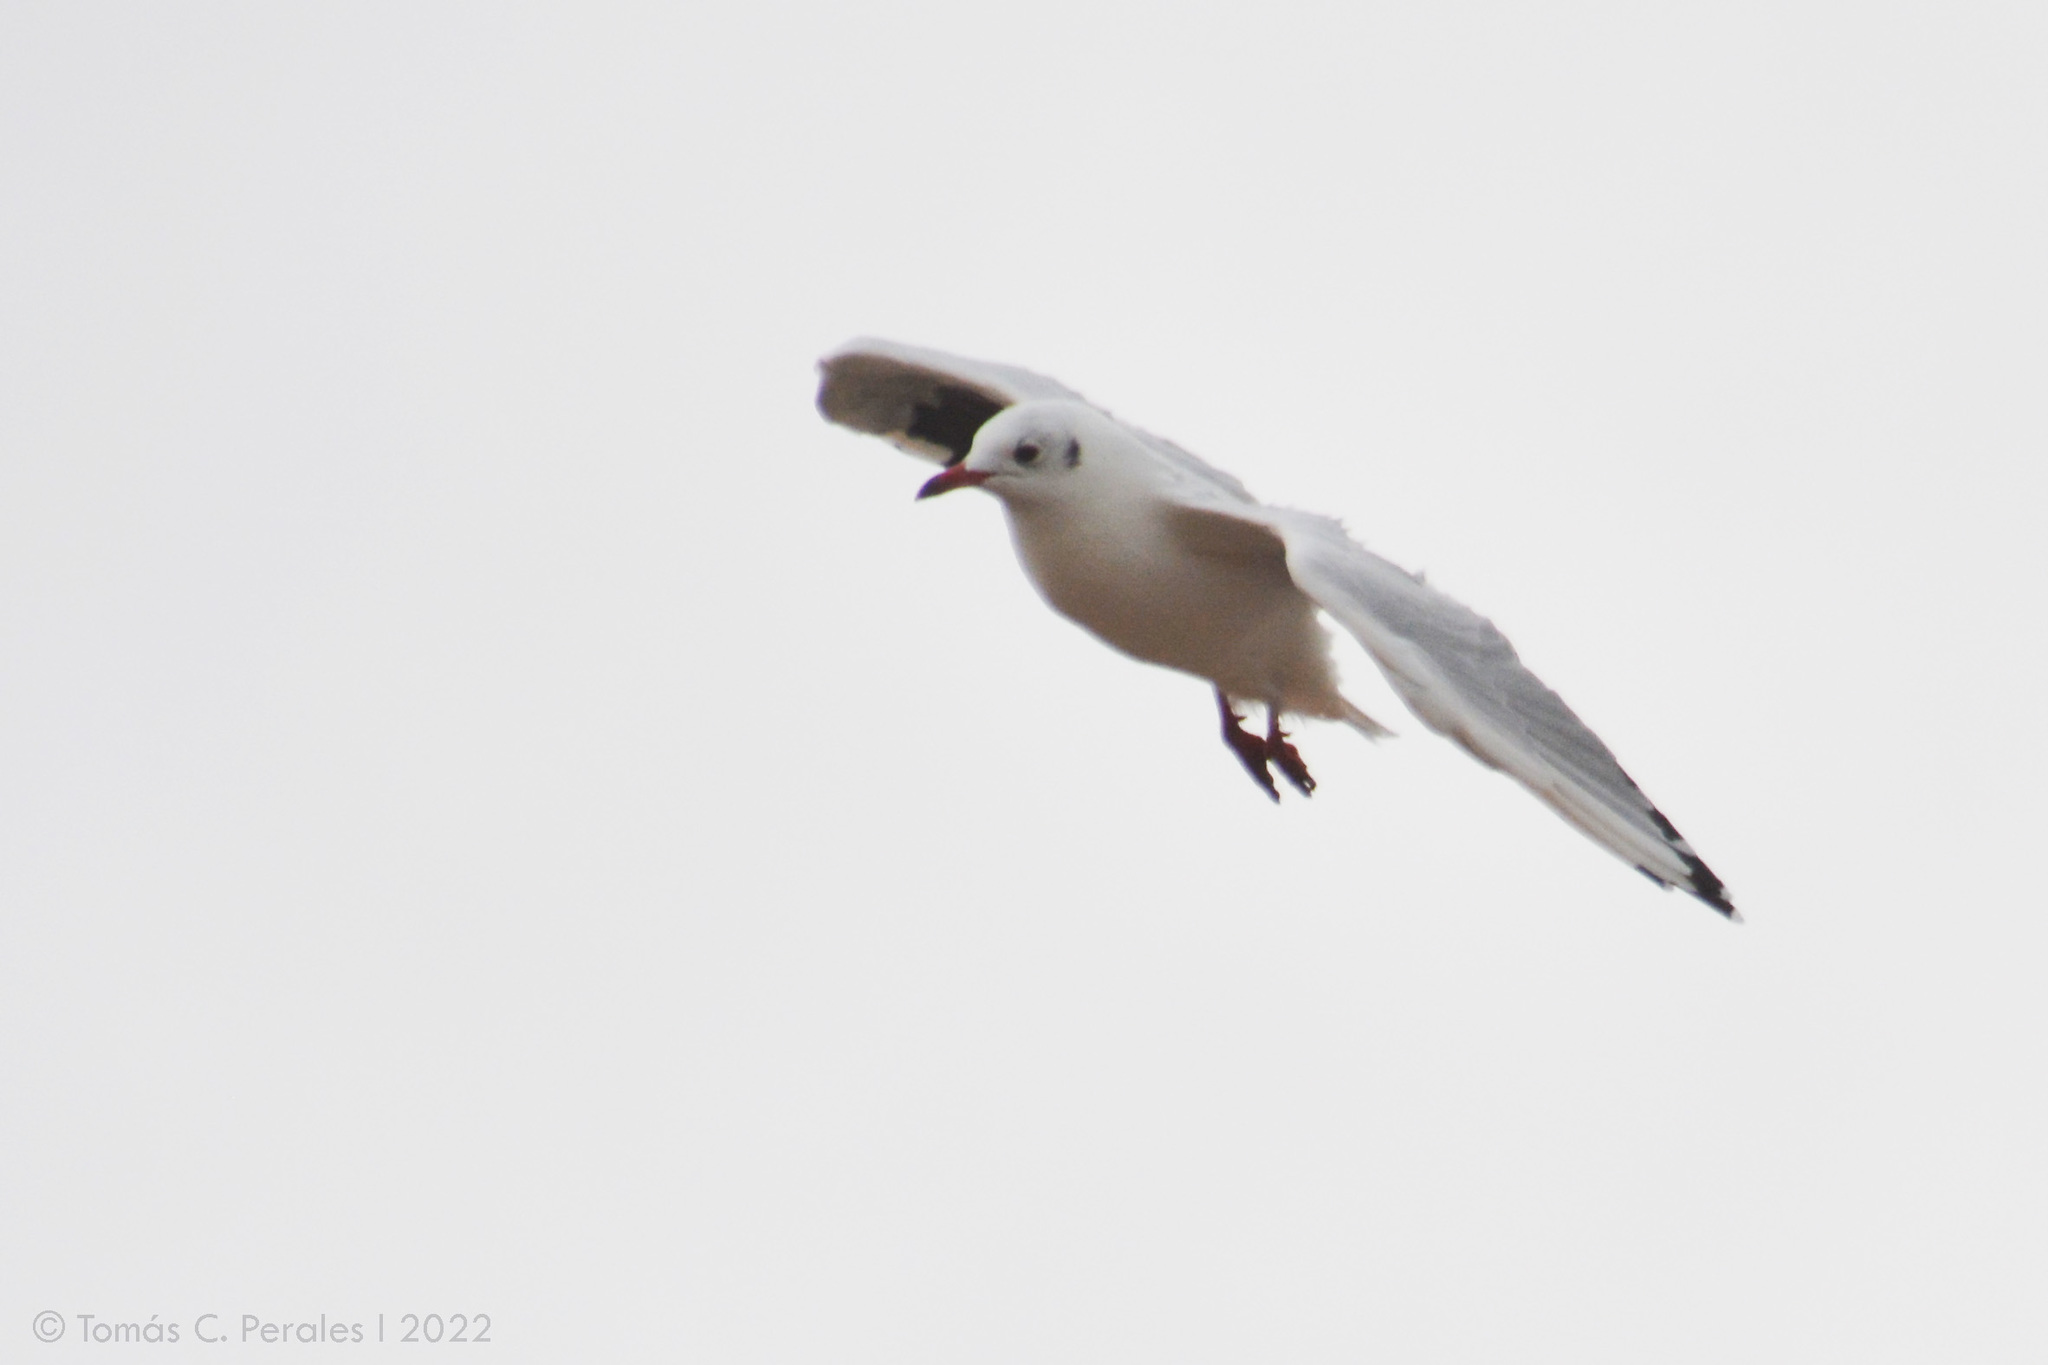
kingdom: Animalia
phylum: Chordata
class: Aves
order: Charadriiformes
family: Laridae
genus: Chroicocephalus
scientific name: Chroicocephalus maculipennis
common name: Brown-hooded gull
